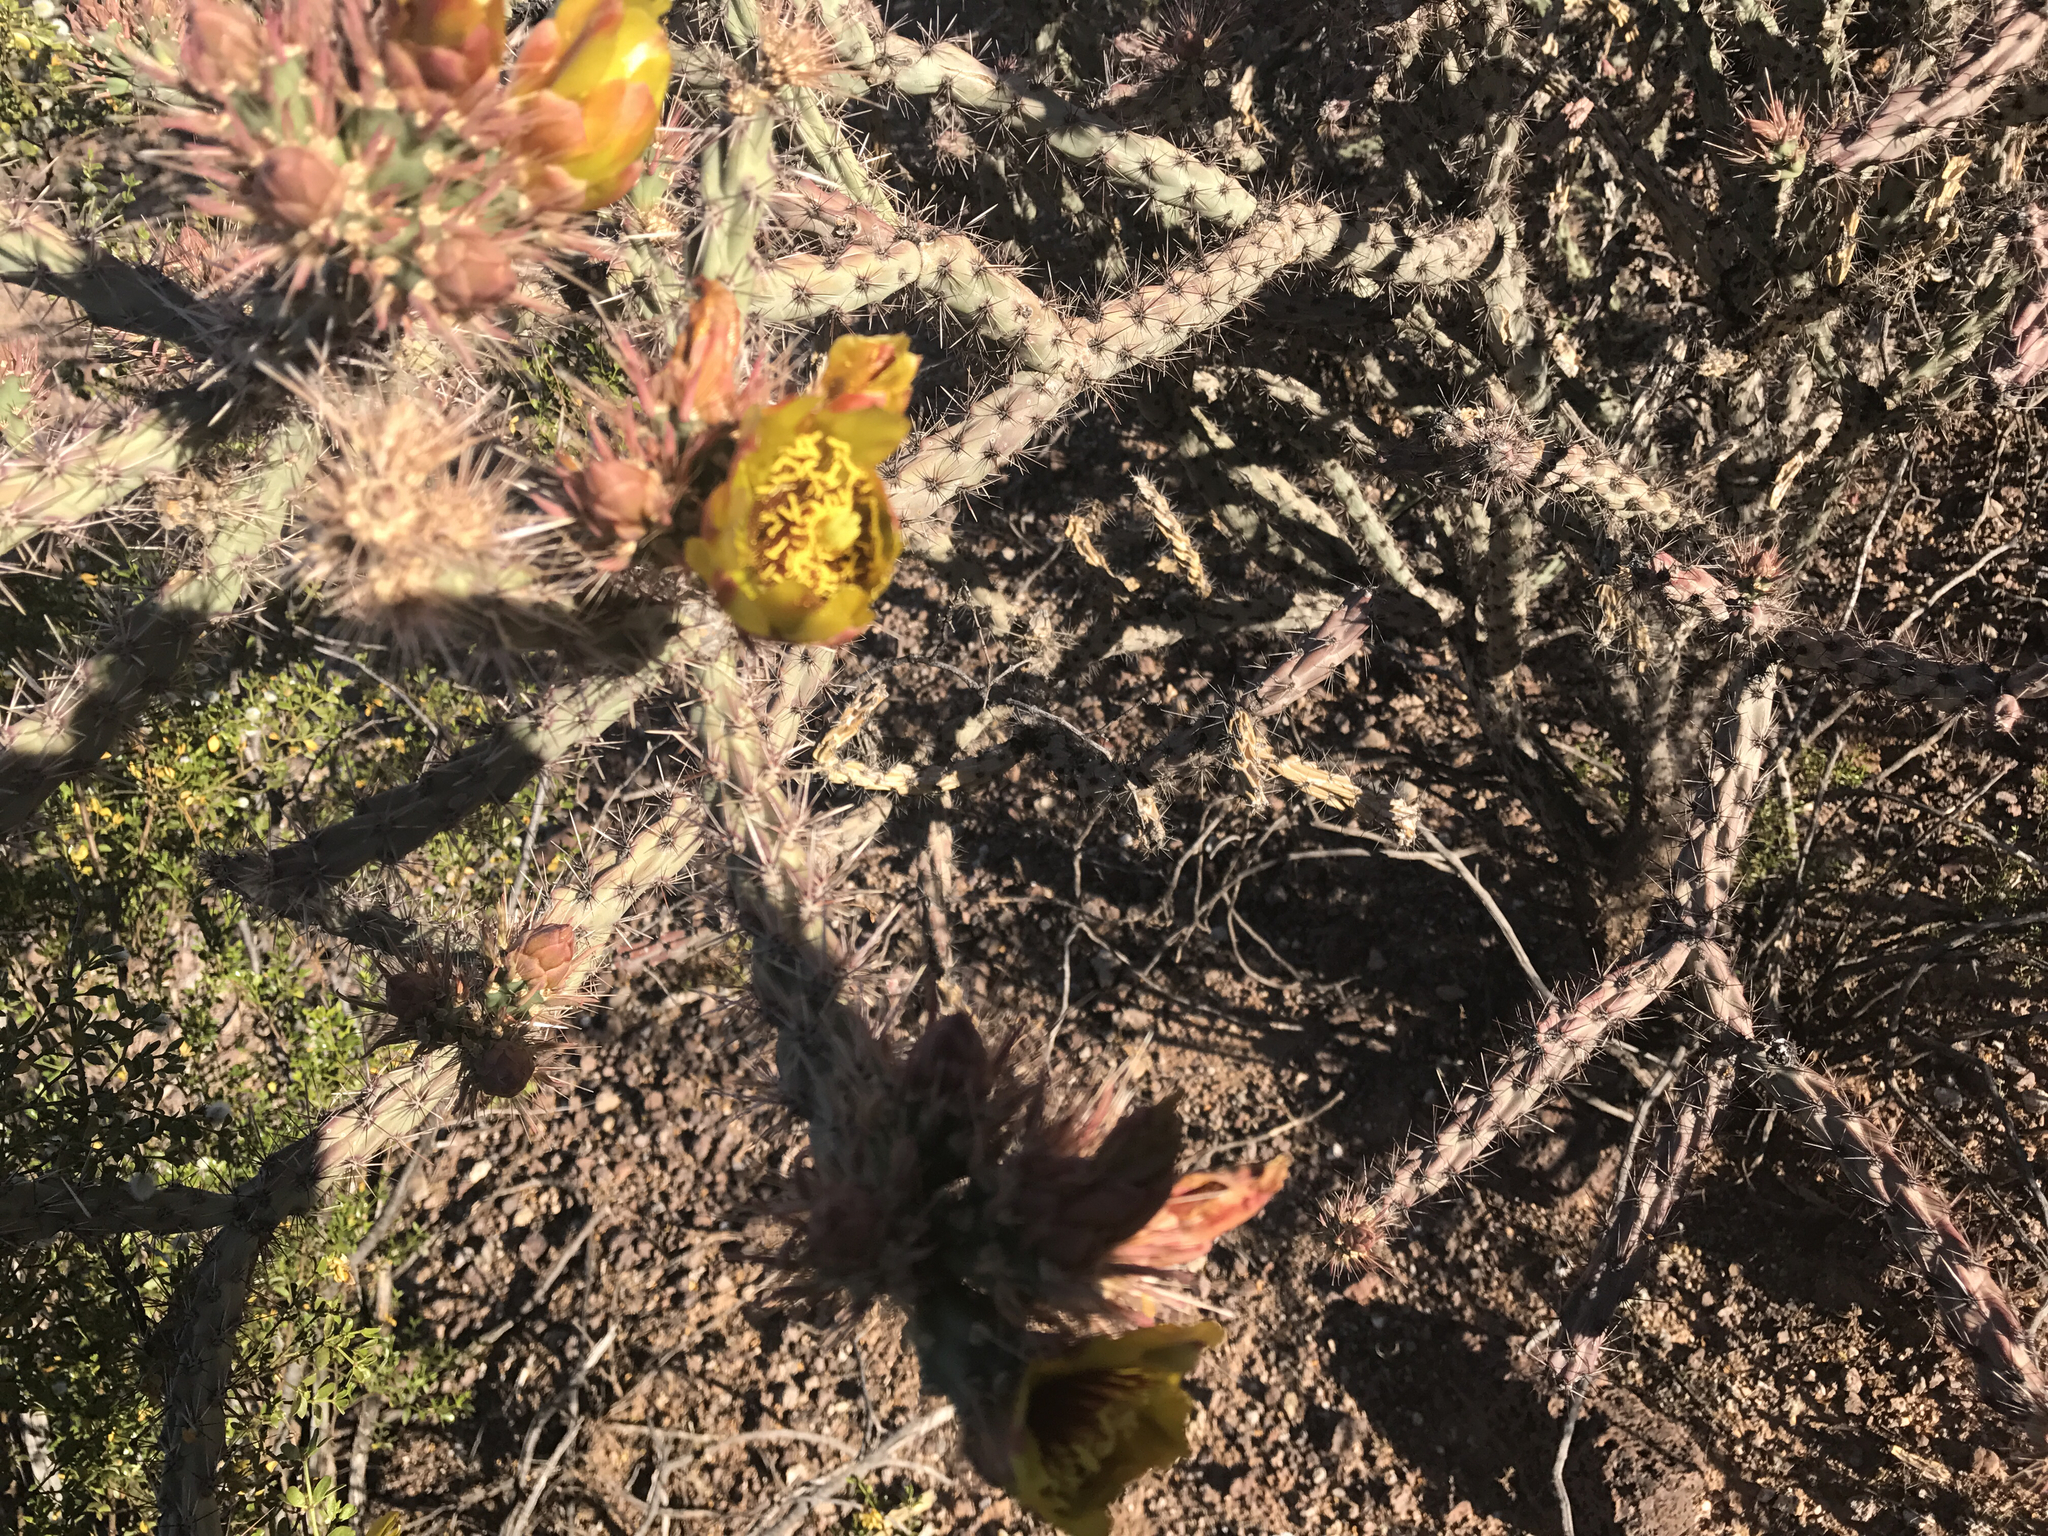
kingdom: Plantae
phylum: Tracheophyta
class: Magnoliopsida
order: Caryophyllales
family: Cactaceae
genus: Cylindropuntia
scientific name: Cylindropuntia acanthocarpa
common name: Buckhorn cholla
